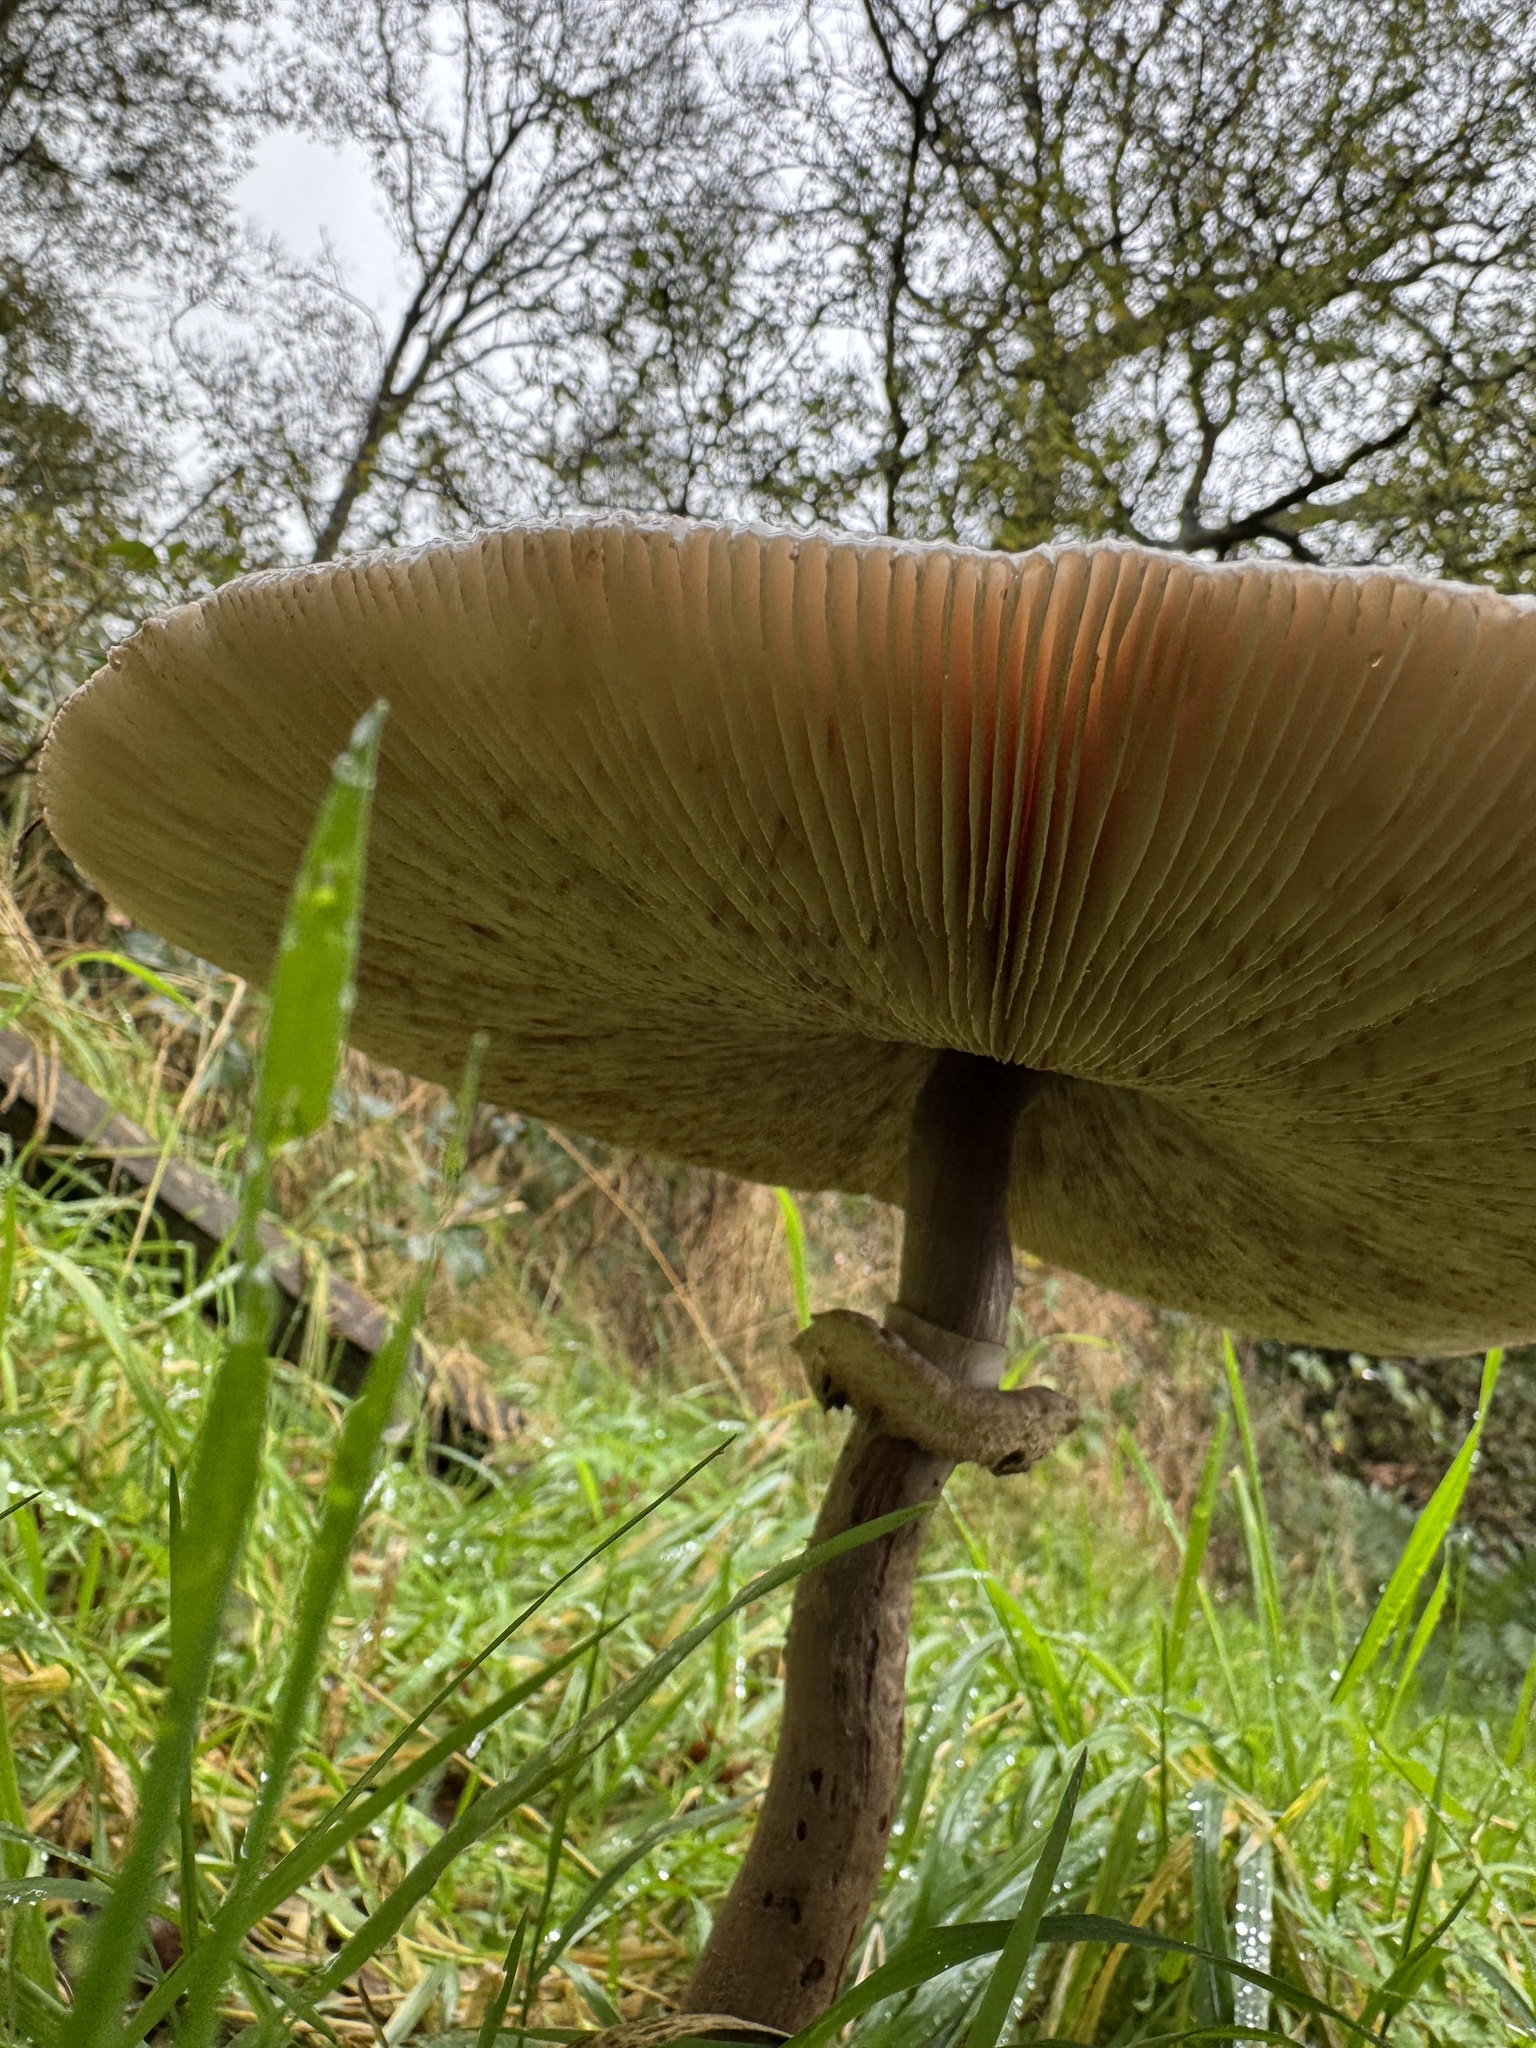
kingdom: Fungi
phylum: Basidiomycota
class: Agaricomycetes
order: Agaricales
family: Agaricaceae
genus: Chlorophyllum
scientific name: Chlorophyllum rhacodes
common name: Shaggy parasol
